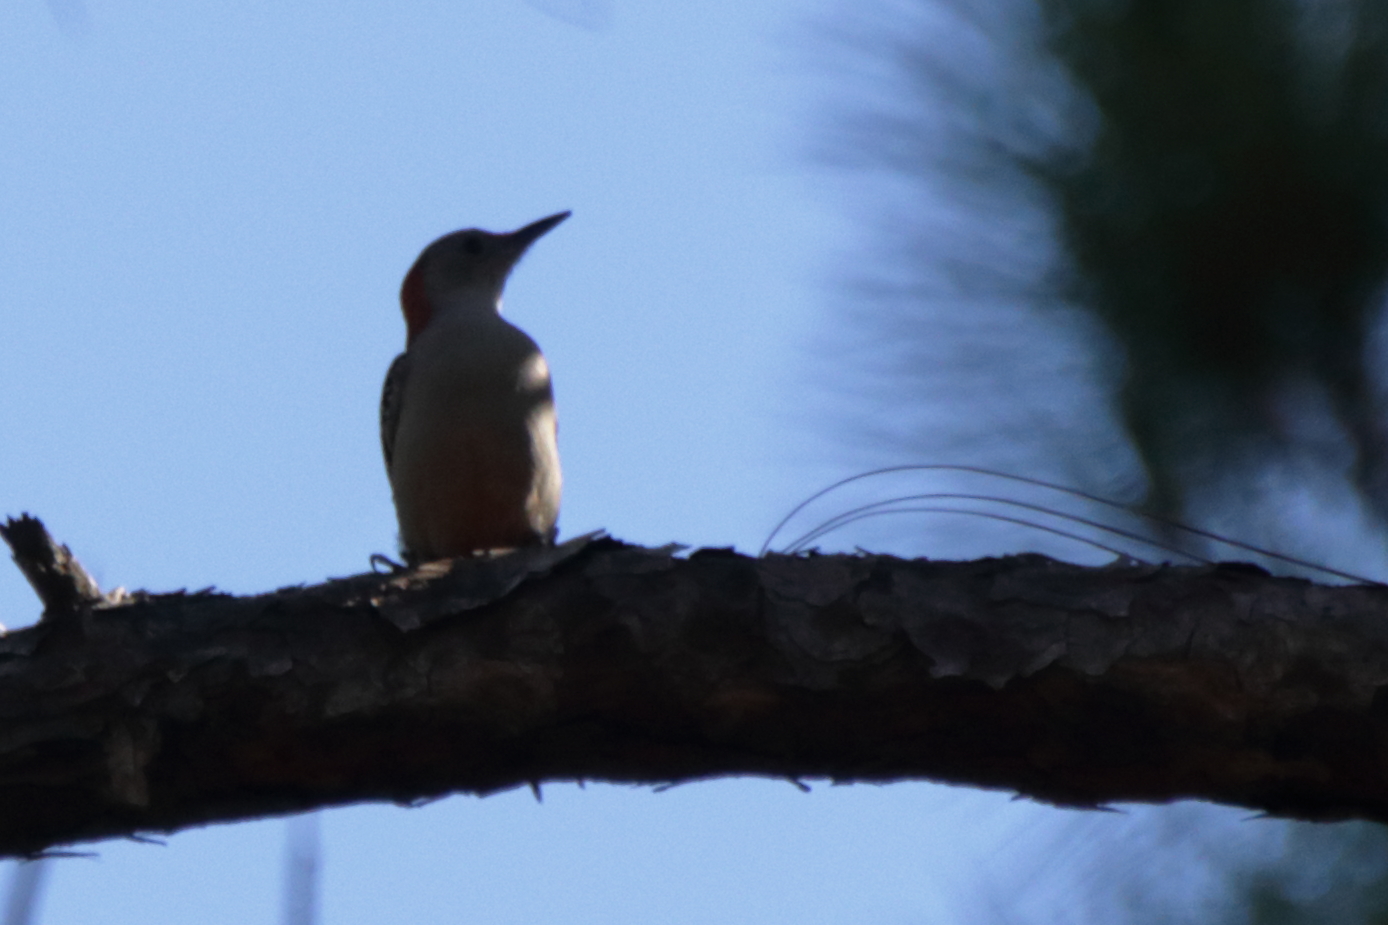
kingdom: Animalia
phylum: Chordata
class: Aves
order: Piciformes
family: Picidae
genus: Melanerpes
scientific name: Melanerpes carolinus
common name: Red-bellied woodpecker
